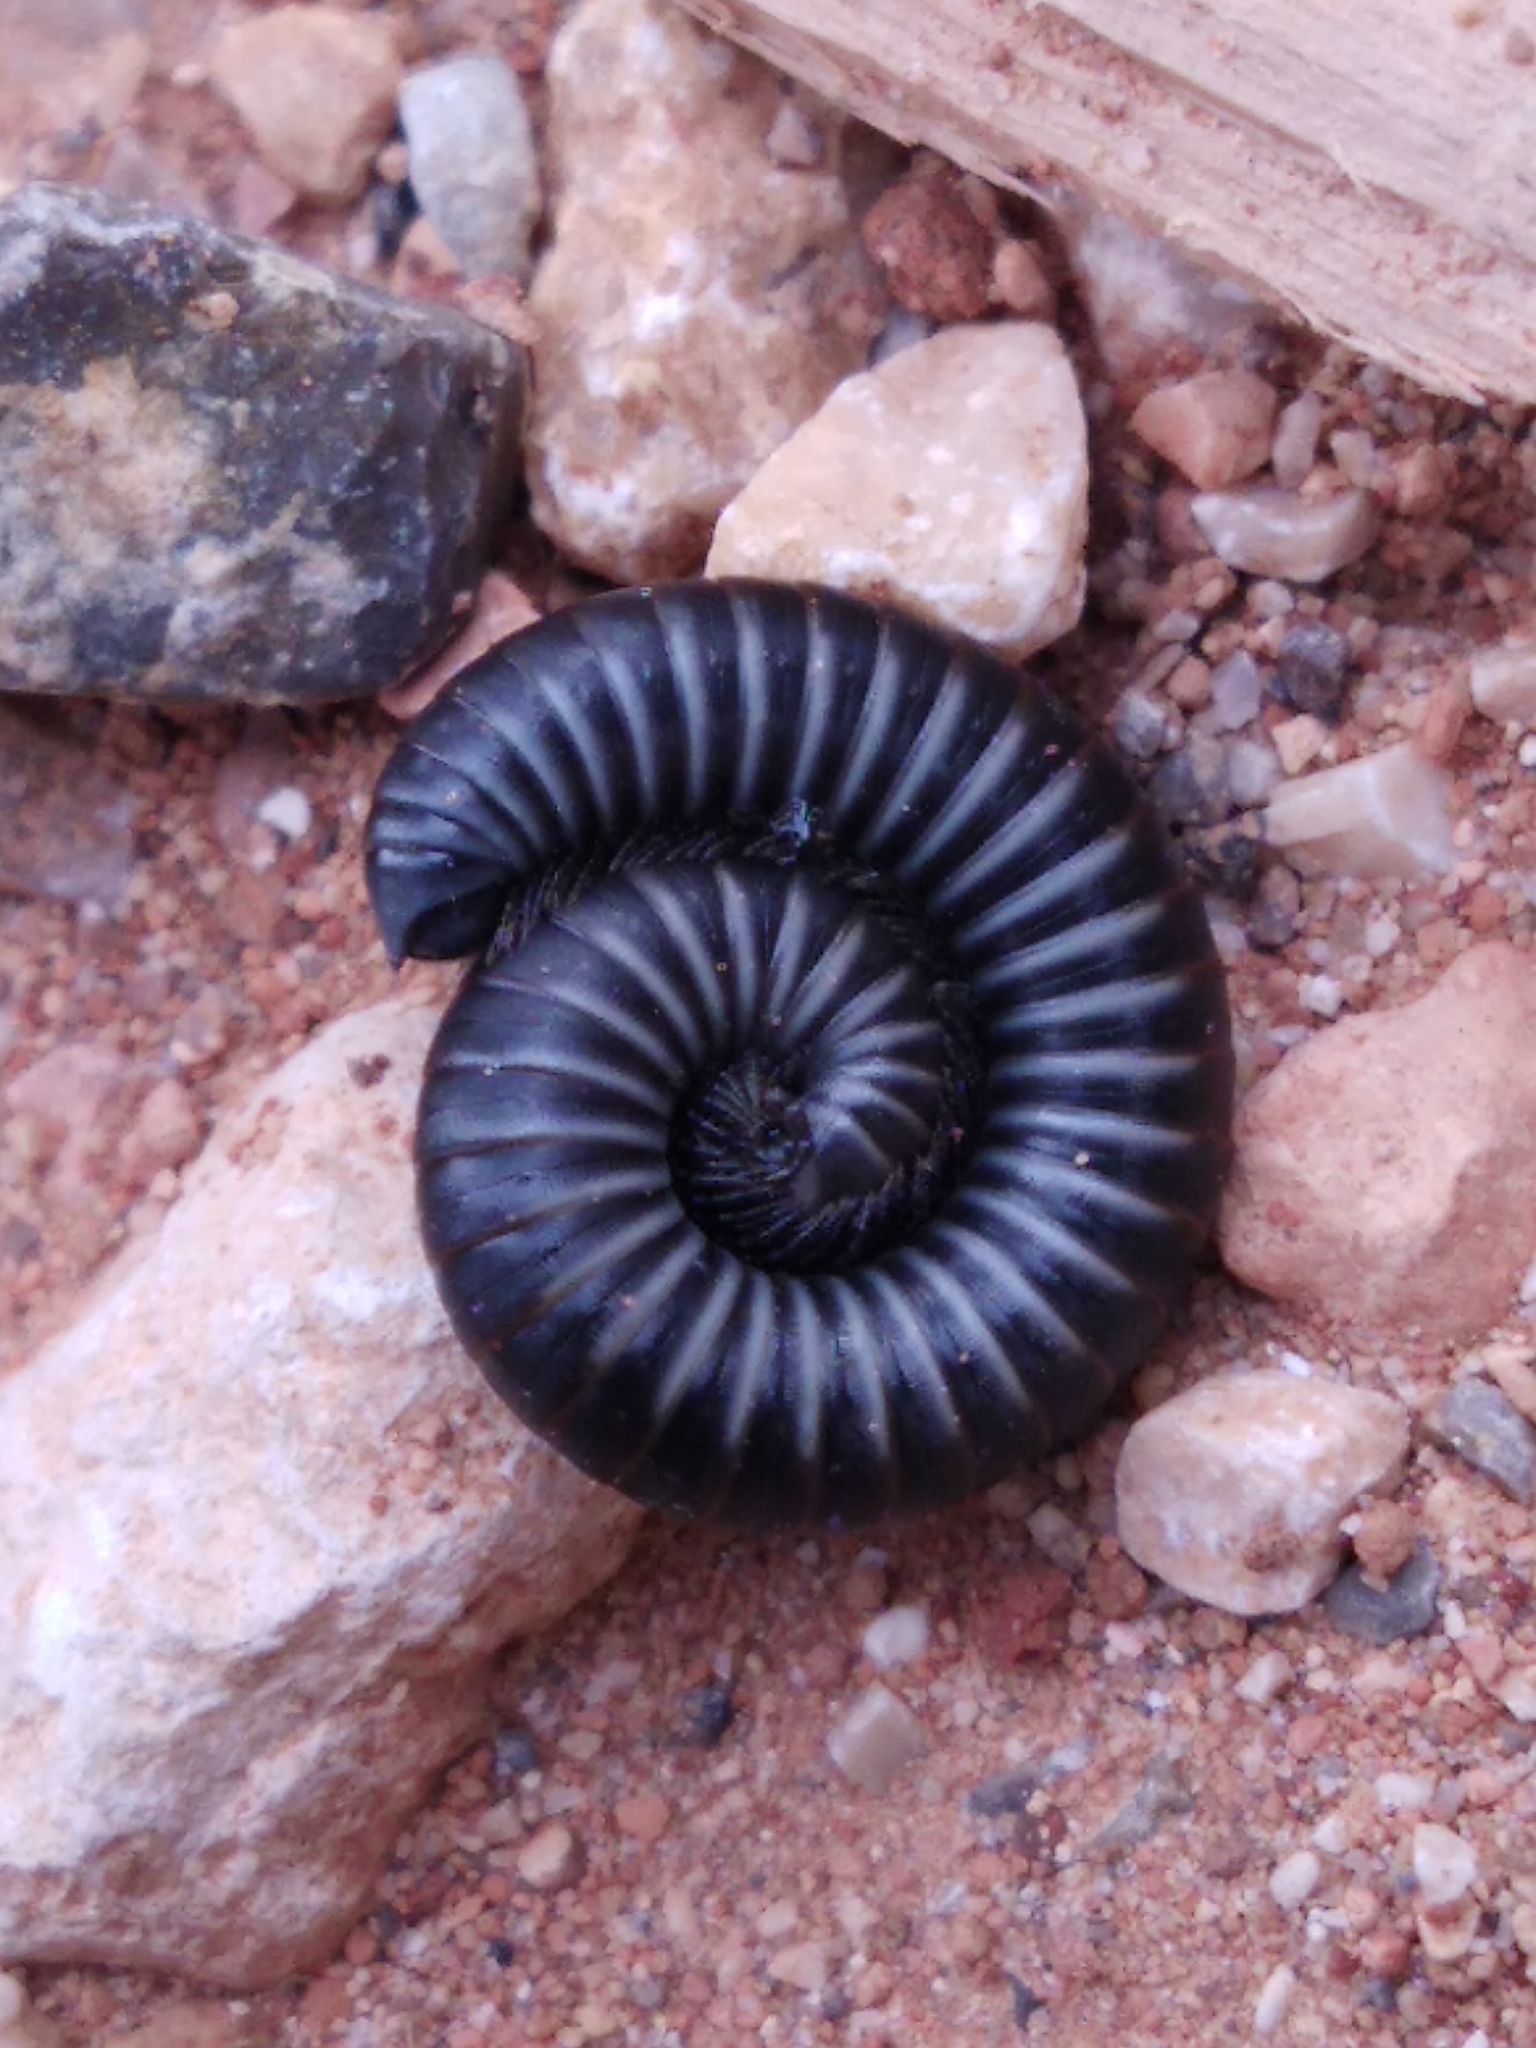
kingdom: Animalia
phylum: Arthropoda
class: Diplopoda
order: Julida
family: Julidae
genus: Ommatoiulus
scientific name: Ommatoiulus rutilans
